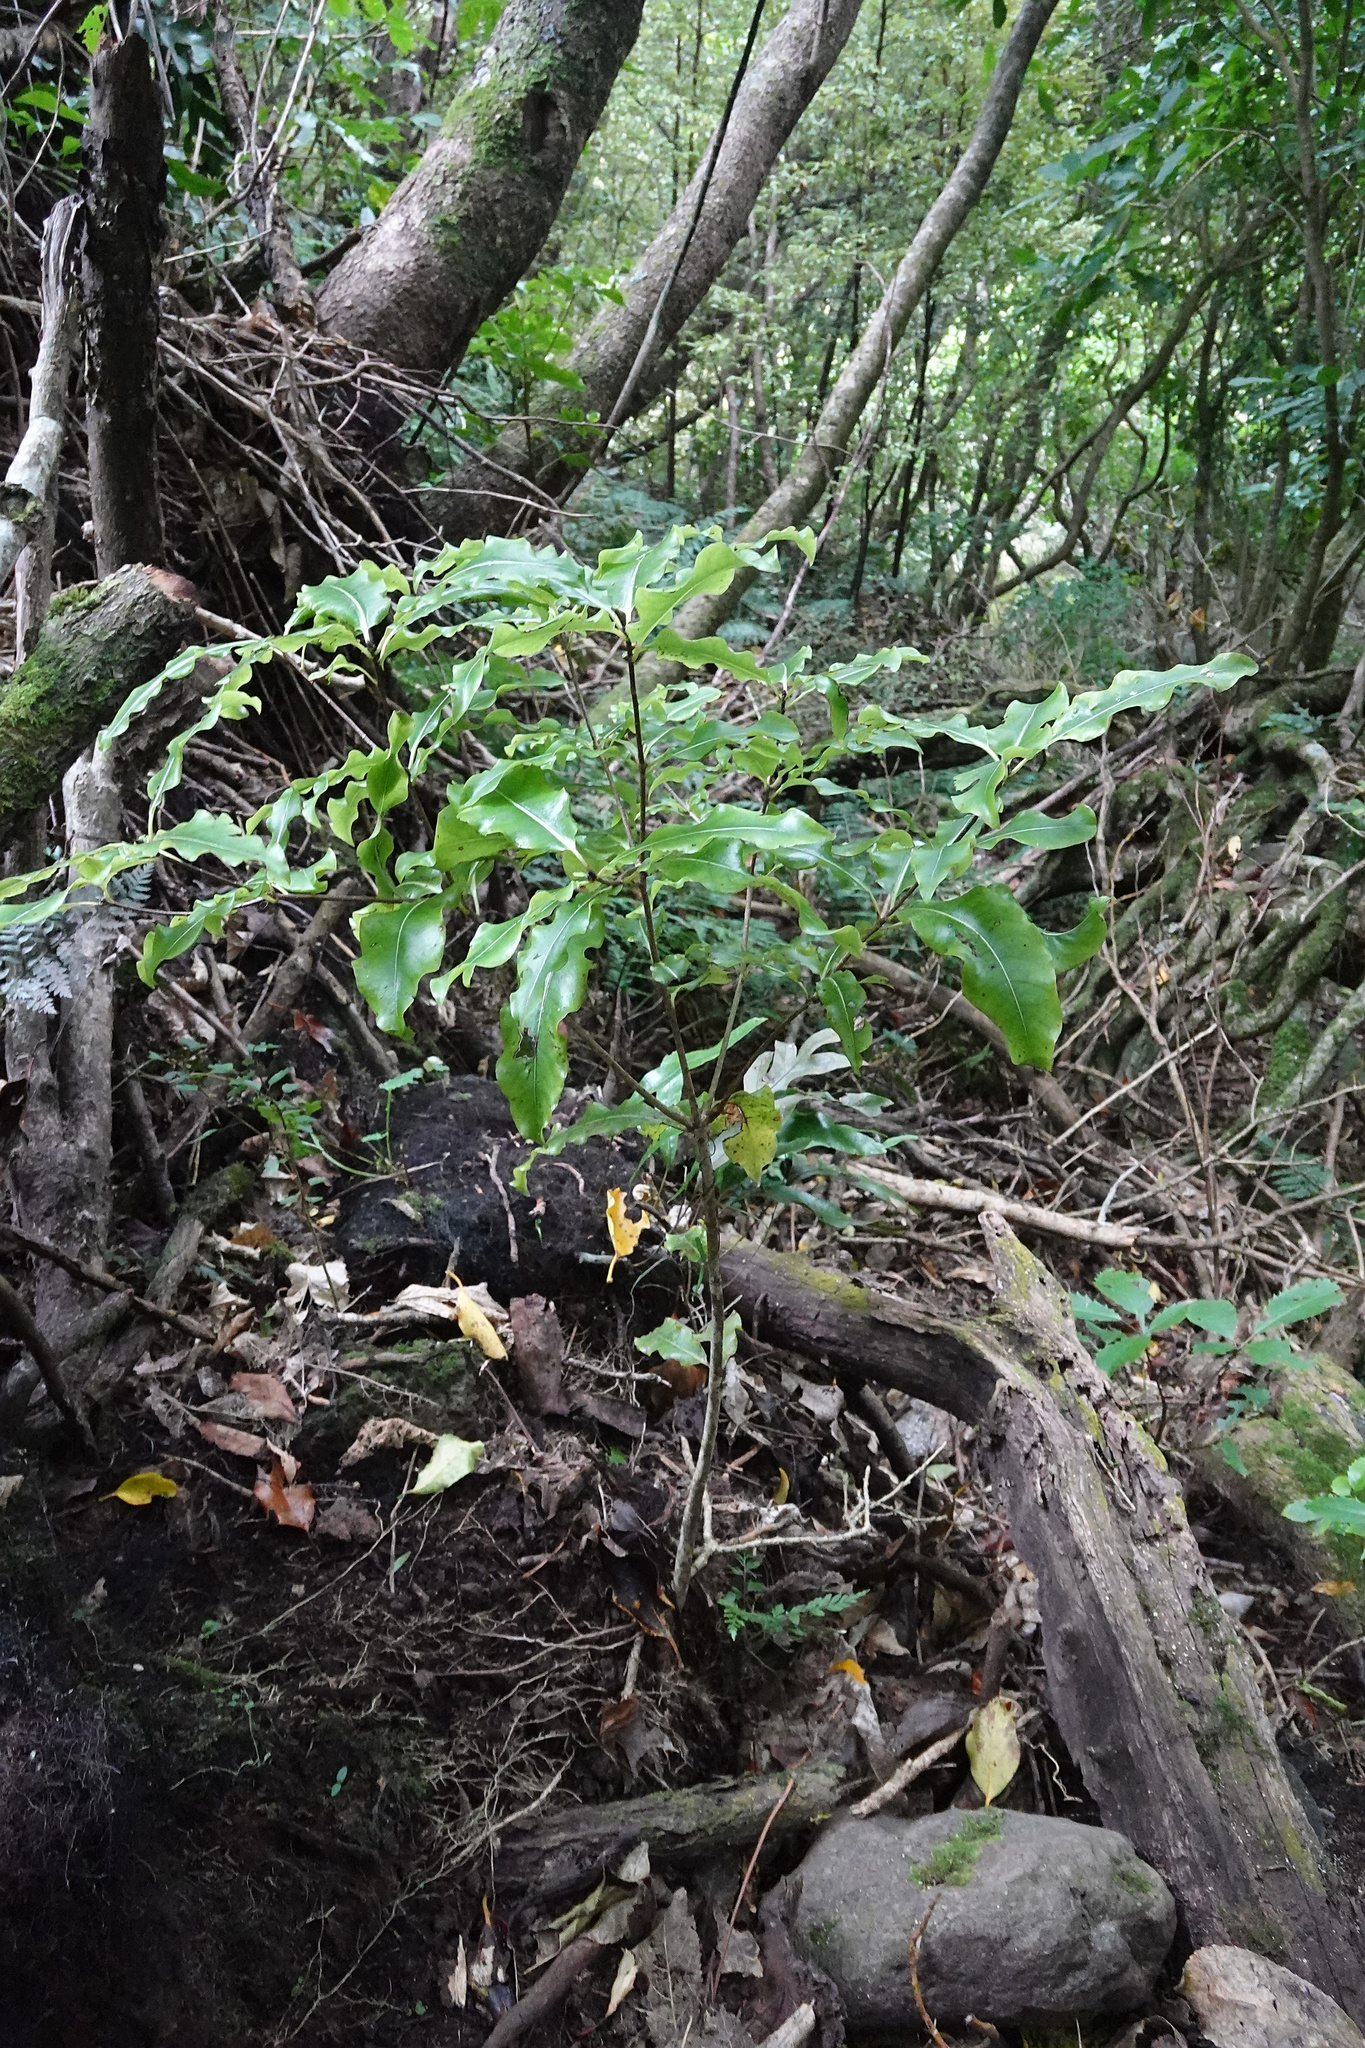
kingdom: Plantae
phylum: Tracheophyta
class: Magnoliopsida
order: Apiales
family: Pittosporaceae
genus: Pittosporum
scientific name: Pittosporum eugenioides
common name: Lemonwood
